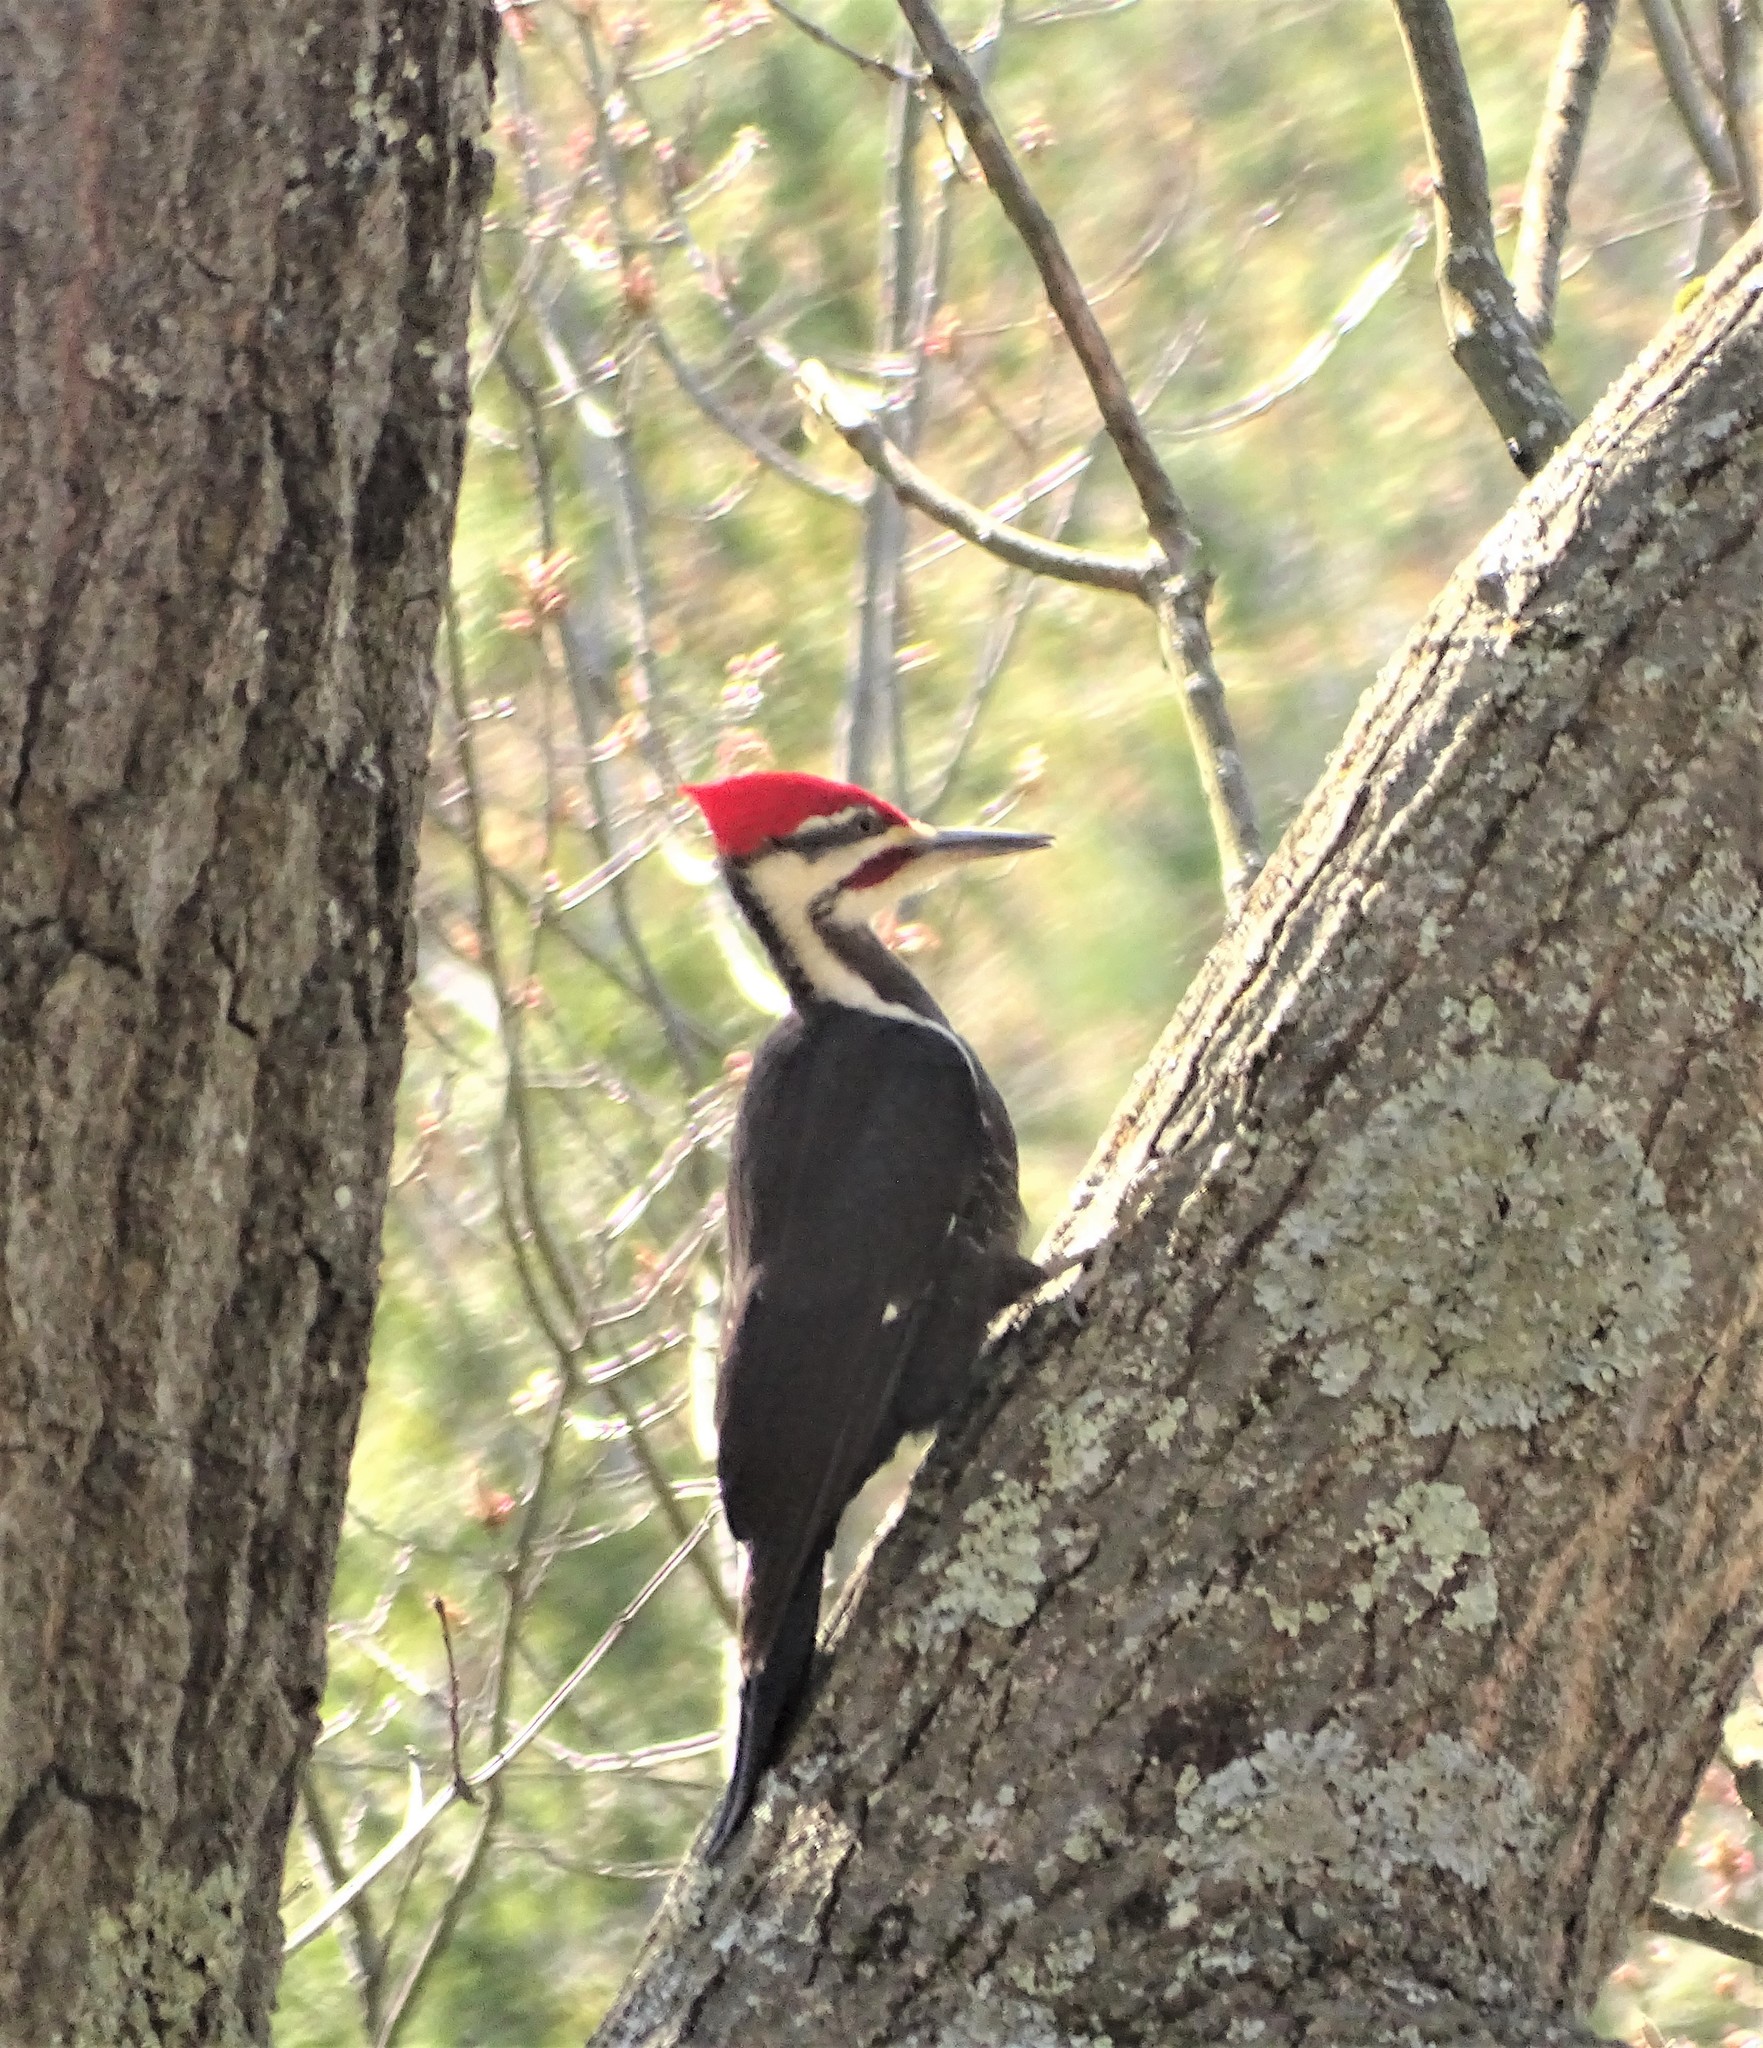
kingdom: Animalia
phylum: Chordata
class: Aves
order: Piciformes
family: Picidae
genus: Dryocopus
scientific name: Dryocopus pileatus
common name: Pileated woodpecker
